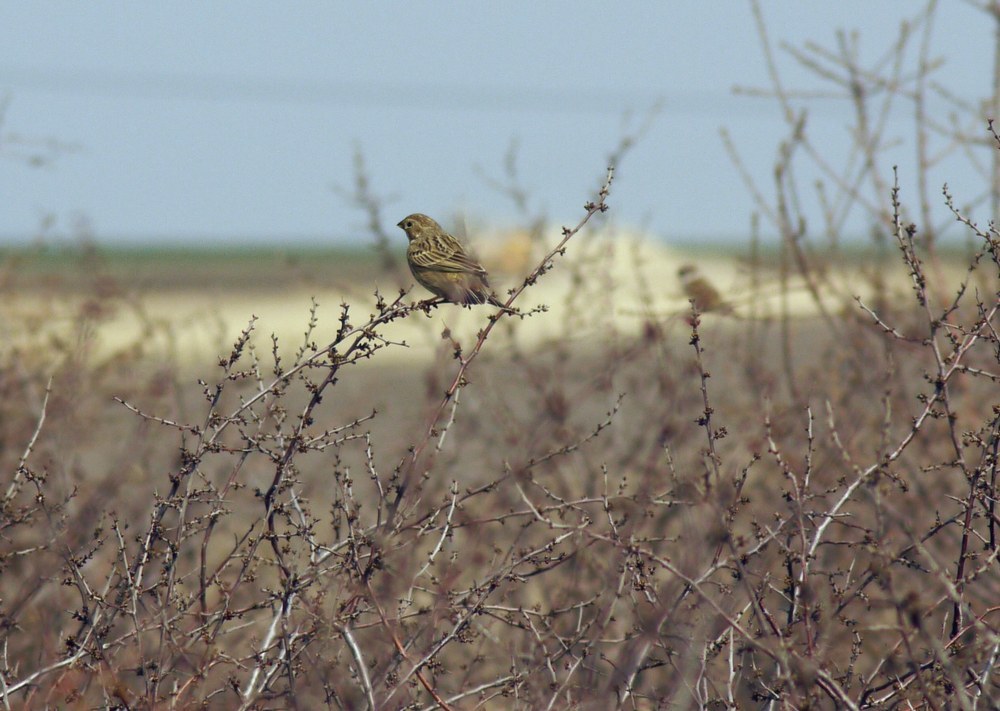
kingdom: Animalia
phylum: Chordata
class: Aves
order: Passeriformes
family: Emberizidae
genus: Emberiza
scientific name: Emberiza calandra
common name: Corn bunting
